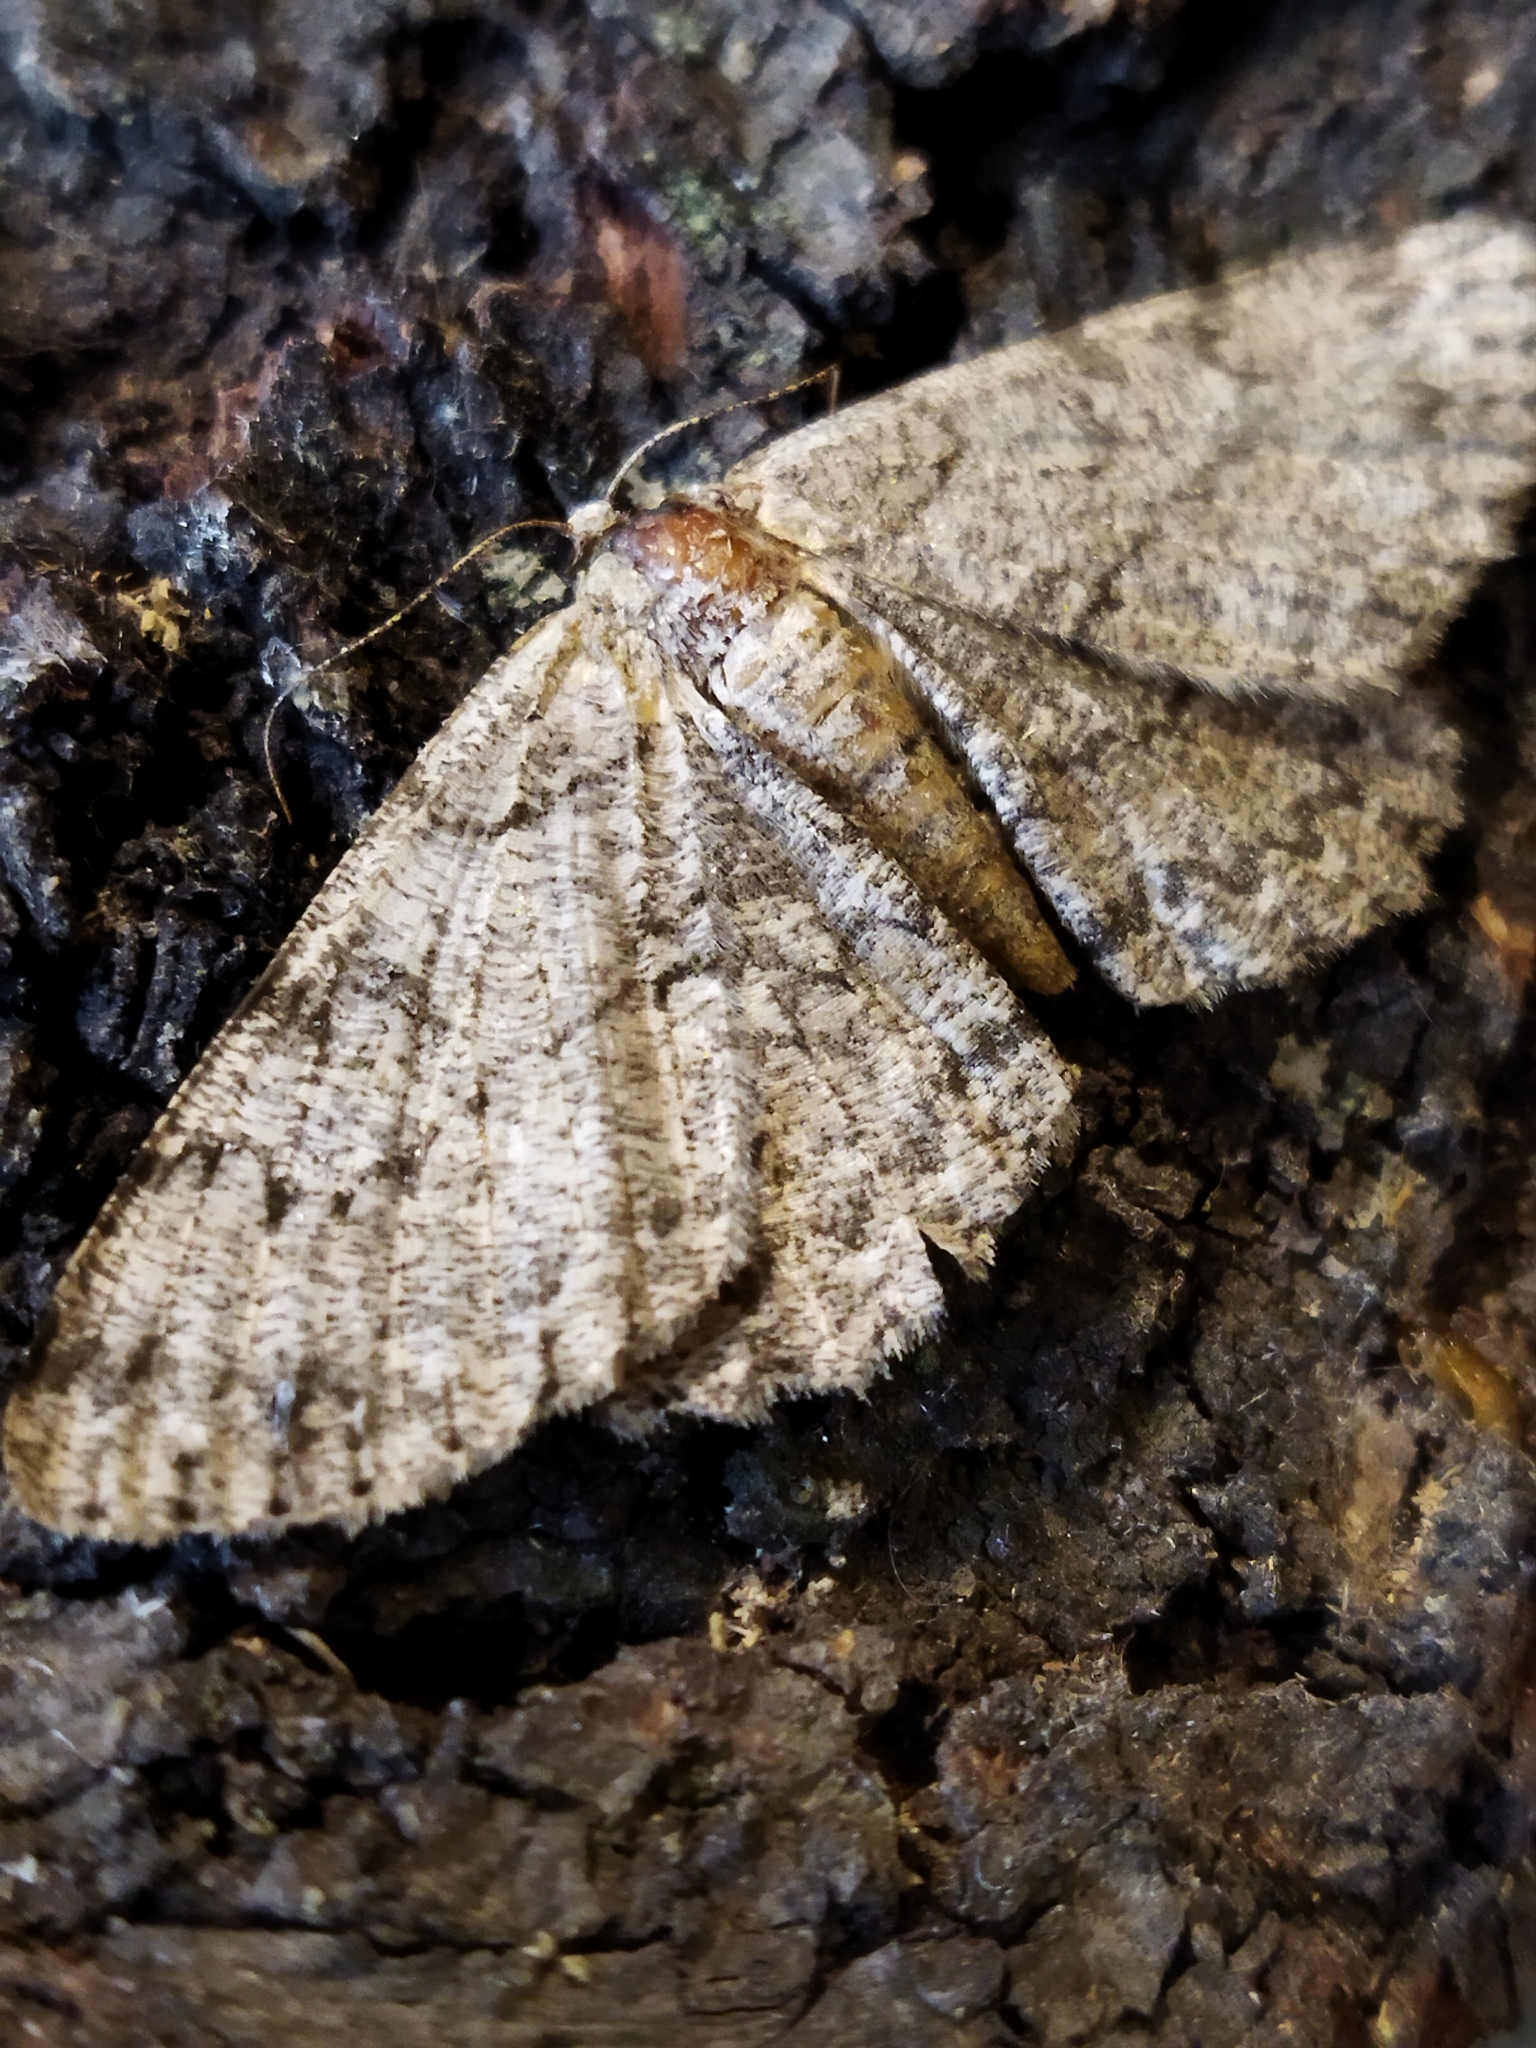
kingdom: Animalia
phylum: Arthropoda
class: Insecta
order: Lepidoptera
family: Geometridae
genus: Hypomecis
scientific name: Hypomecis punctinalis
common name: Pale oak beauty
